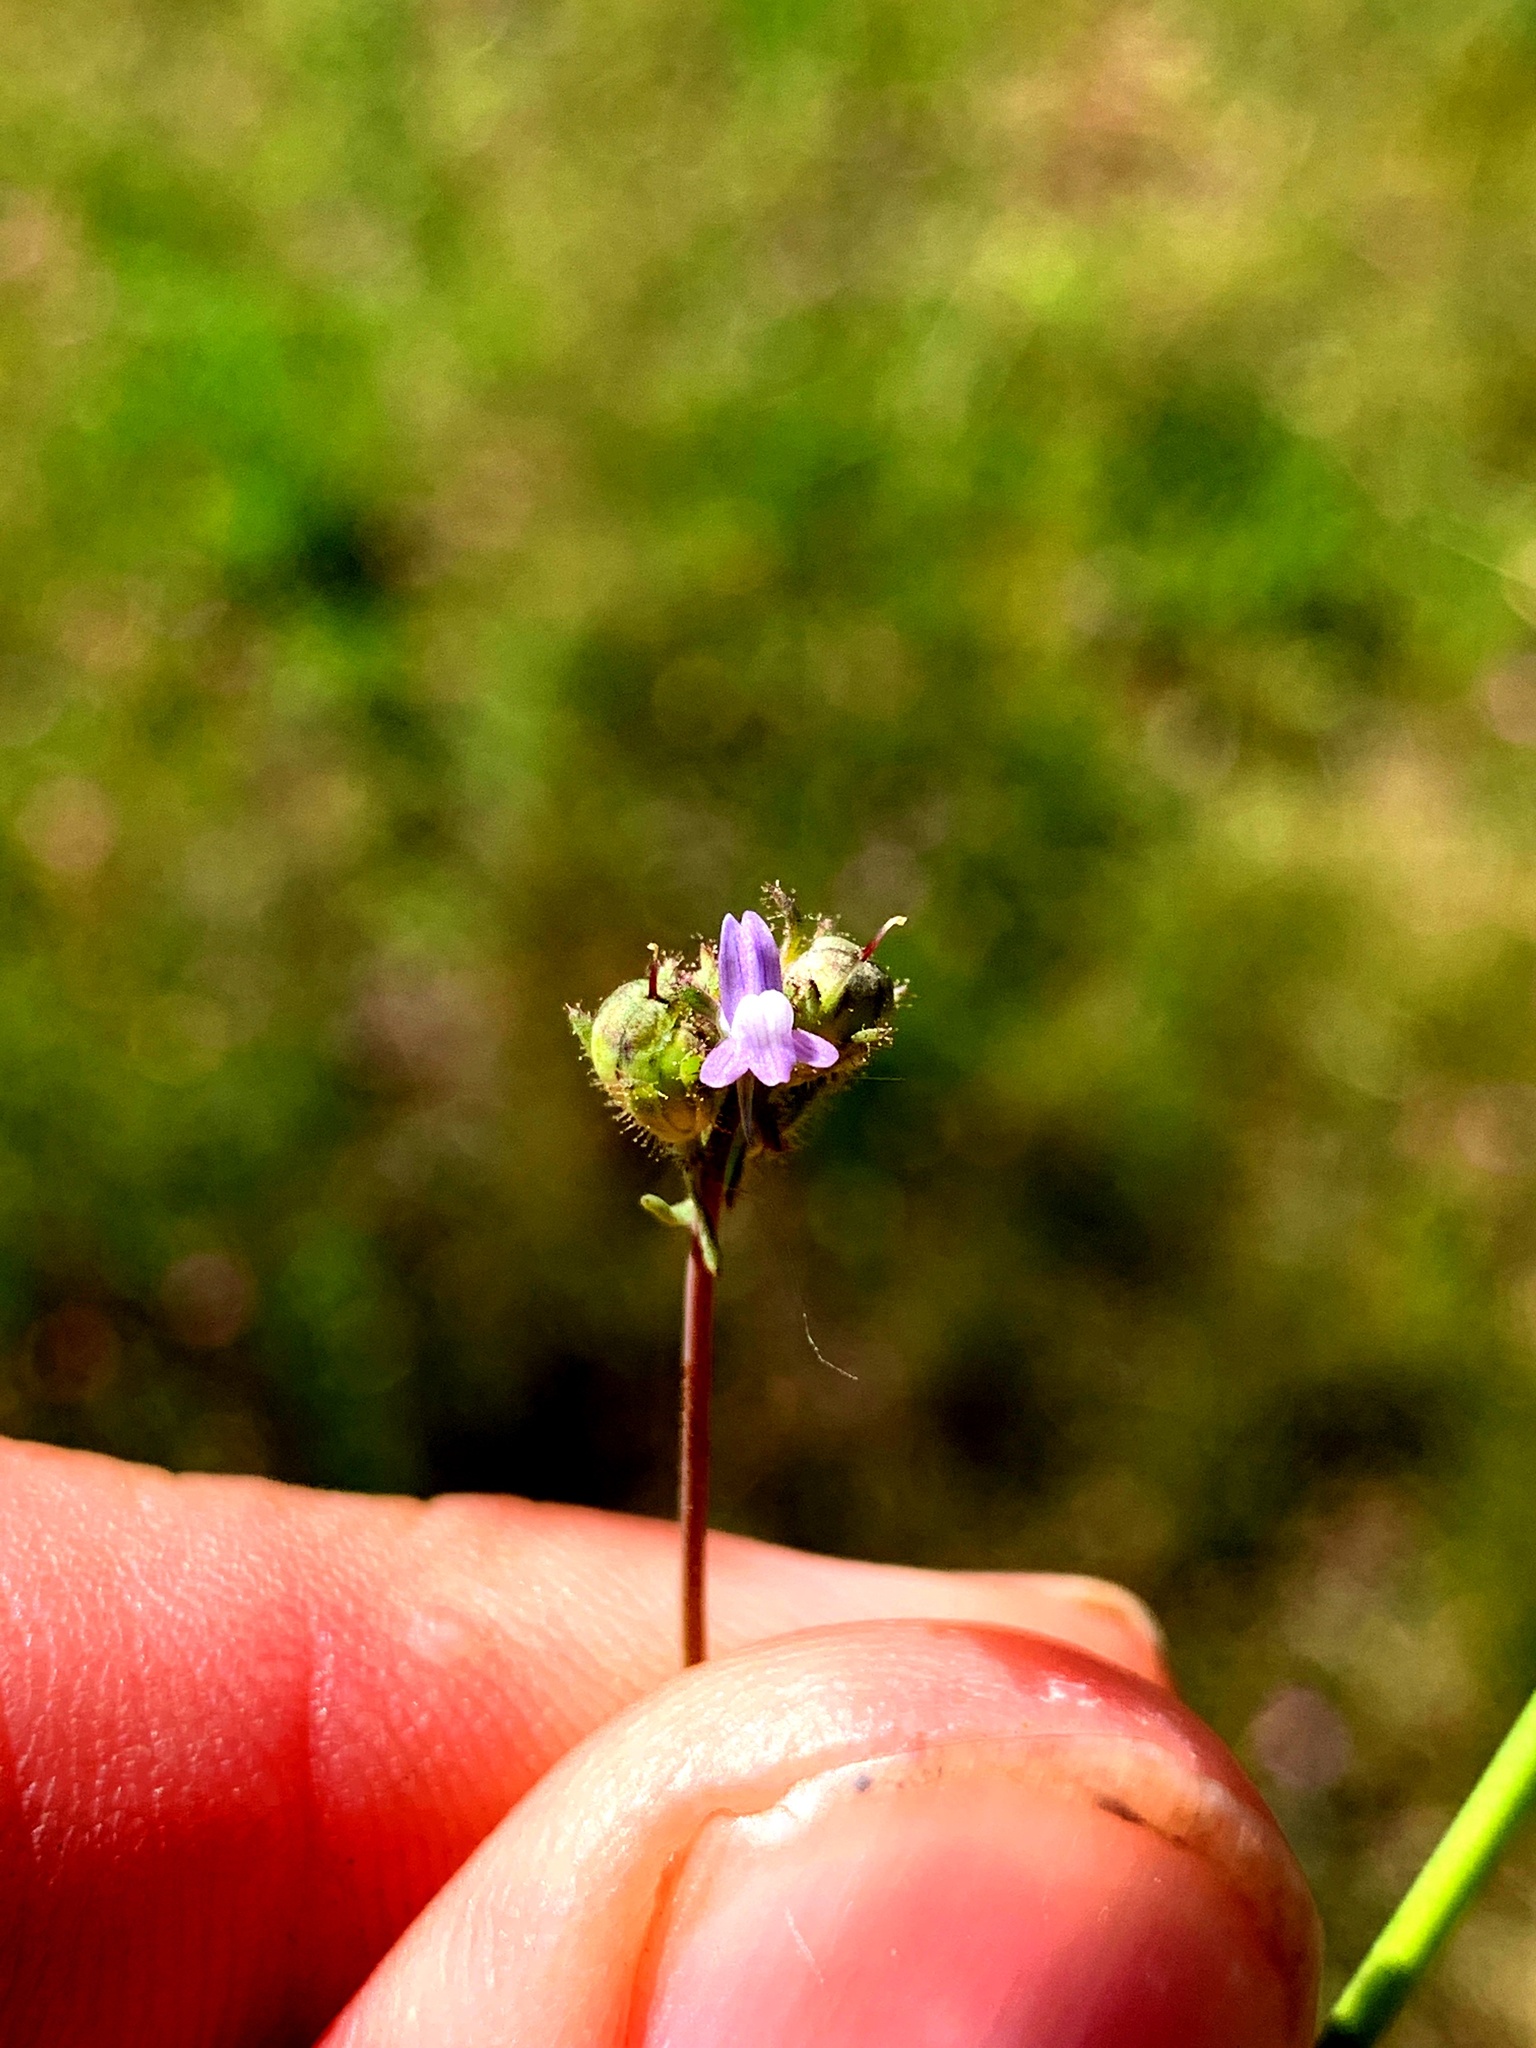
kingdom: Plantae
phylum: Tracheophyta
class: Magnoliopsida
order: Lamiales
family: Plantaginaceae
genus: Linaria
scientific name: Linaria arvensis
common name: Corn toadflax
